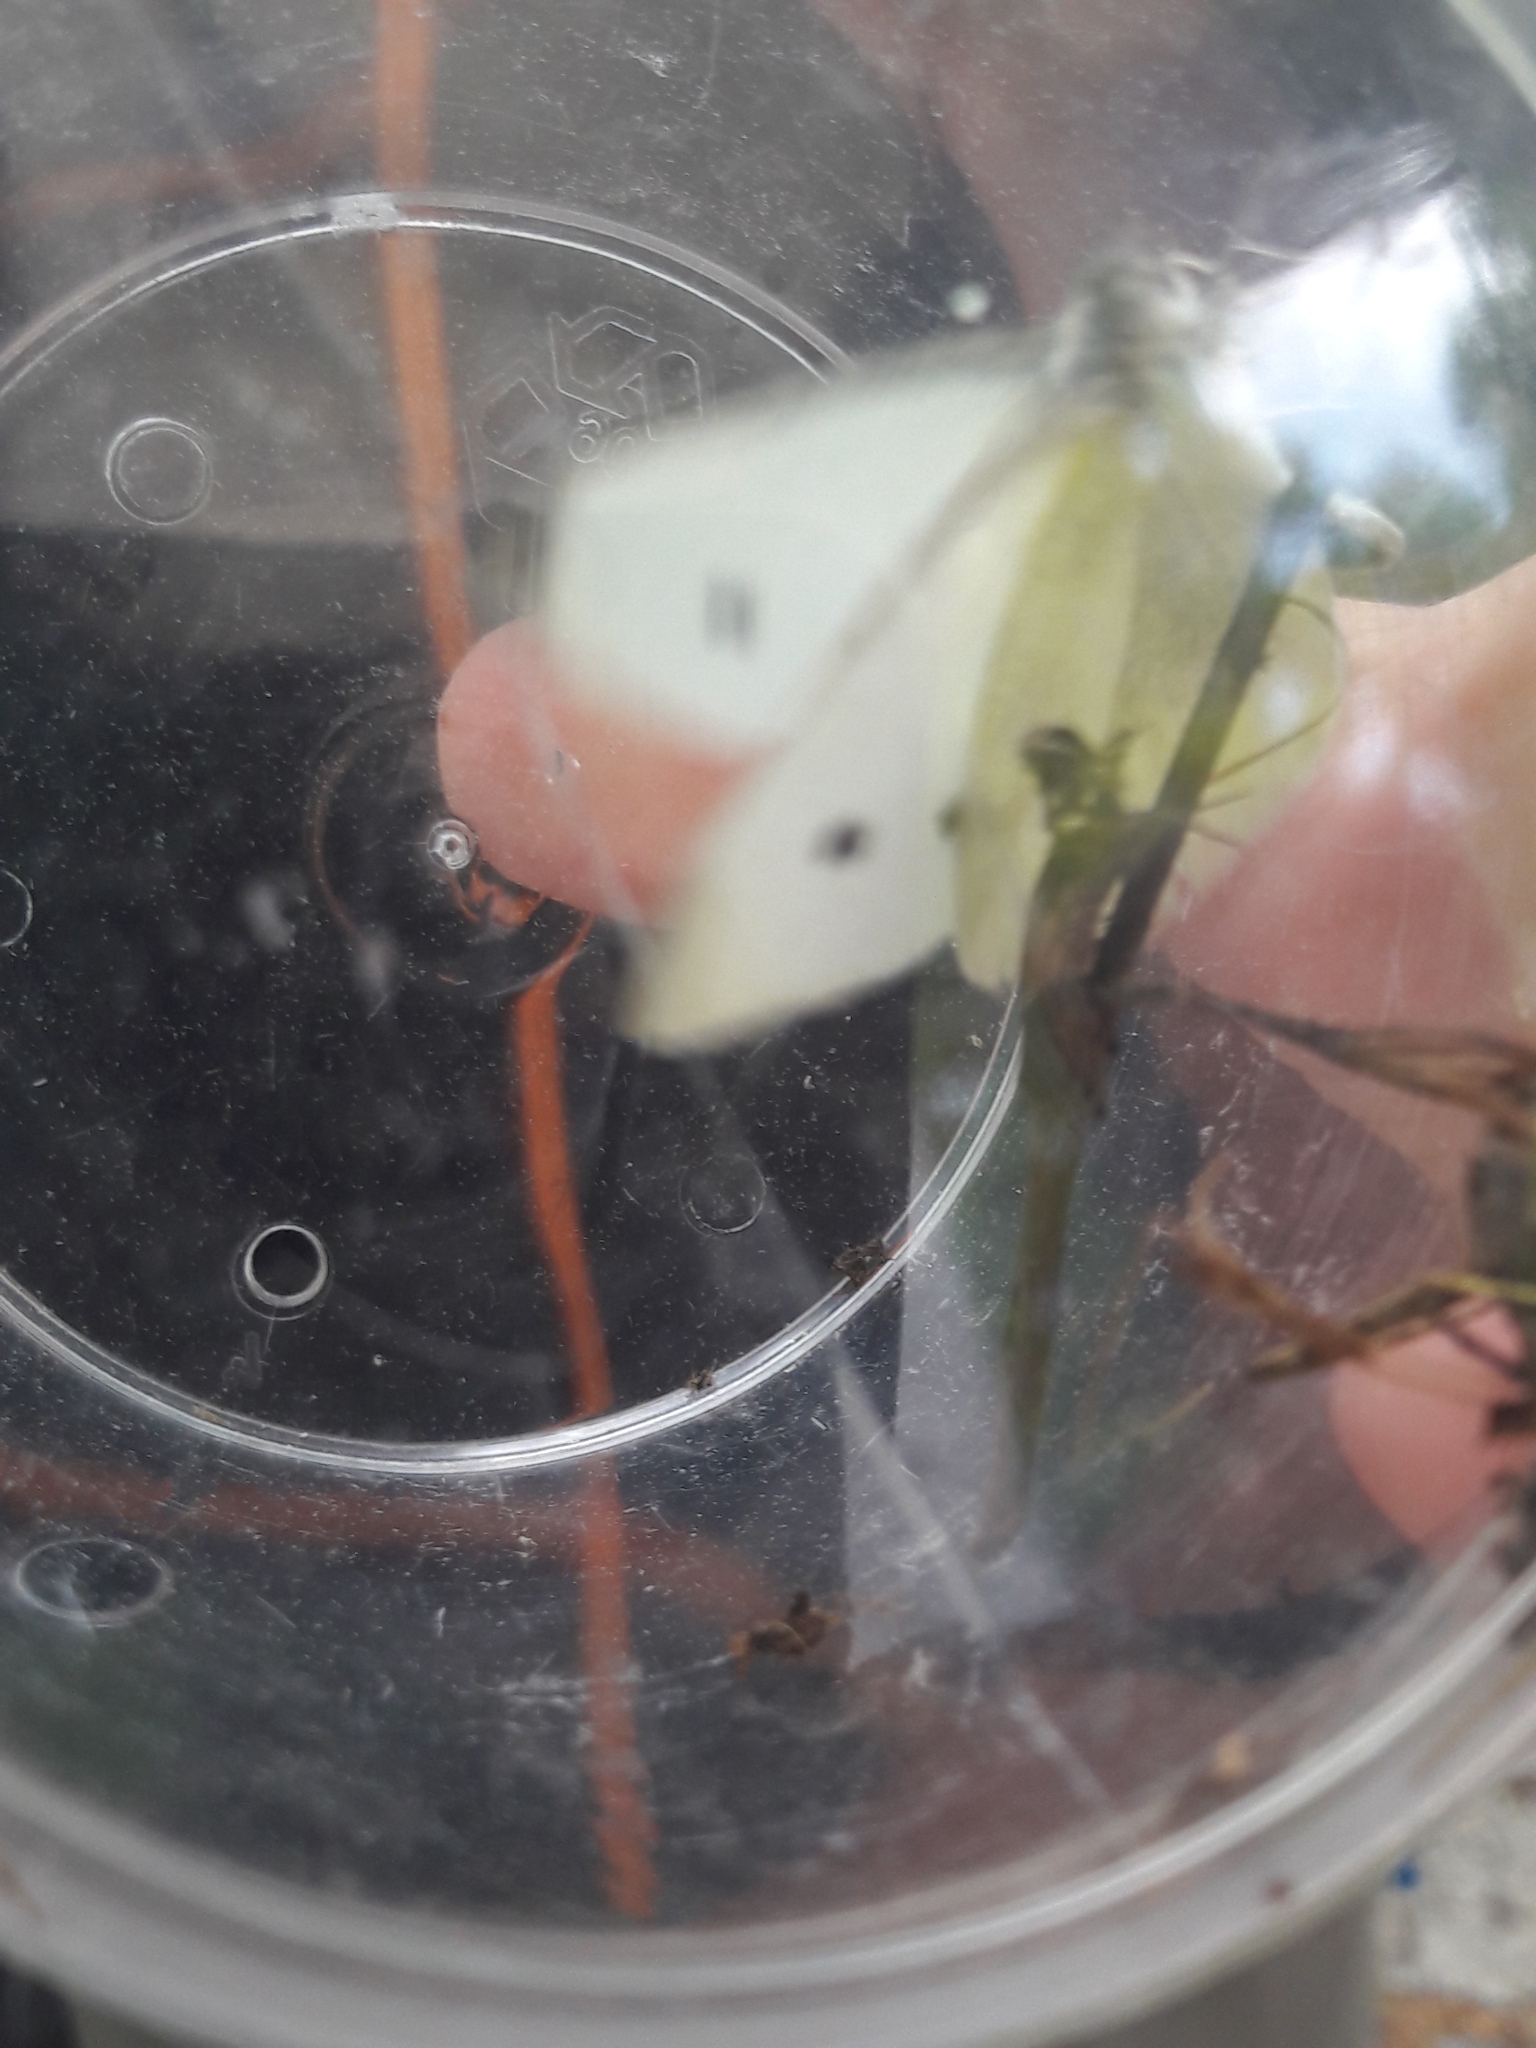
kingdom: Animalia
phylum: Arthropoda
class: Insecta
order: Lepidoptera
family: Pieridae
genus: Pieris
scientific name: Pieris rapae
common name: Small white
